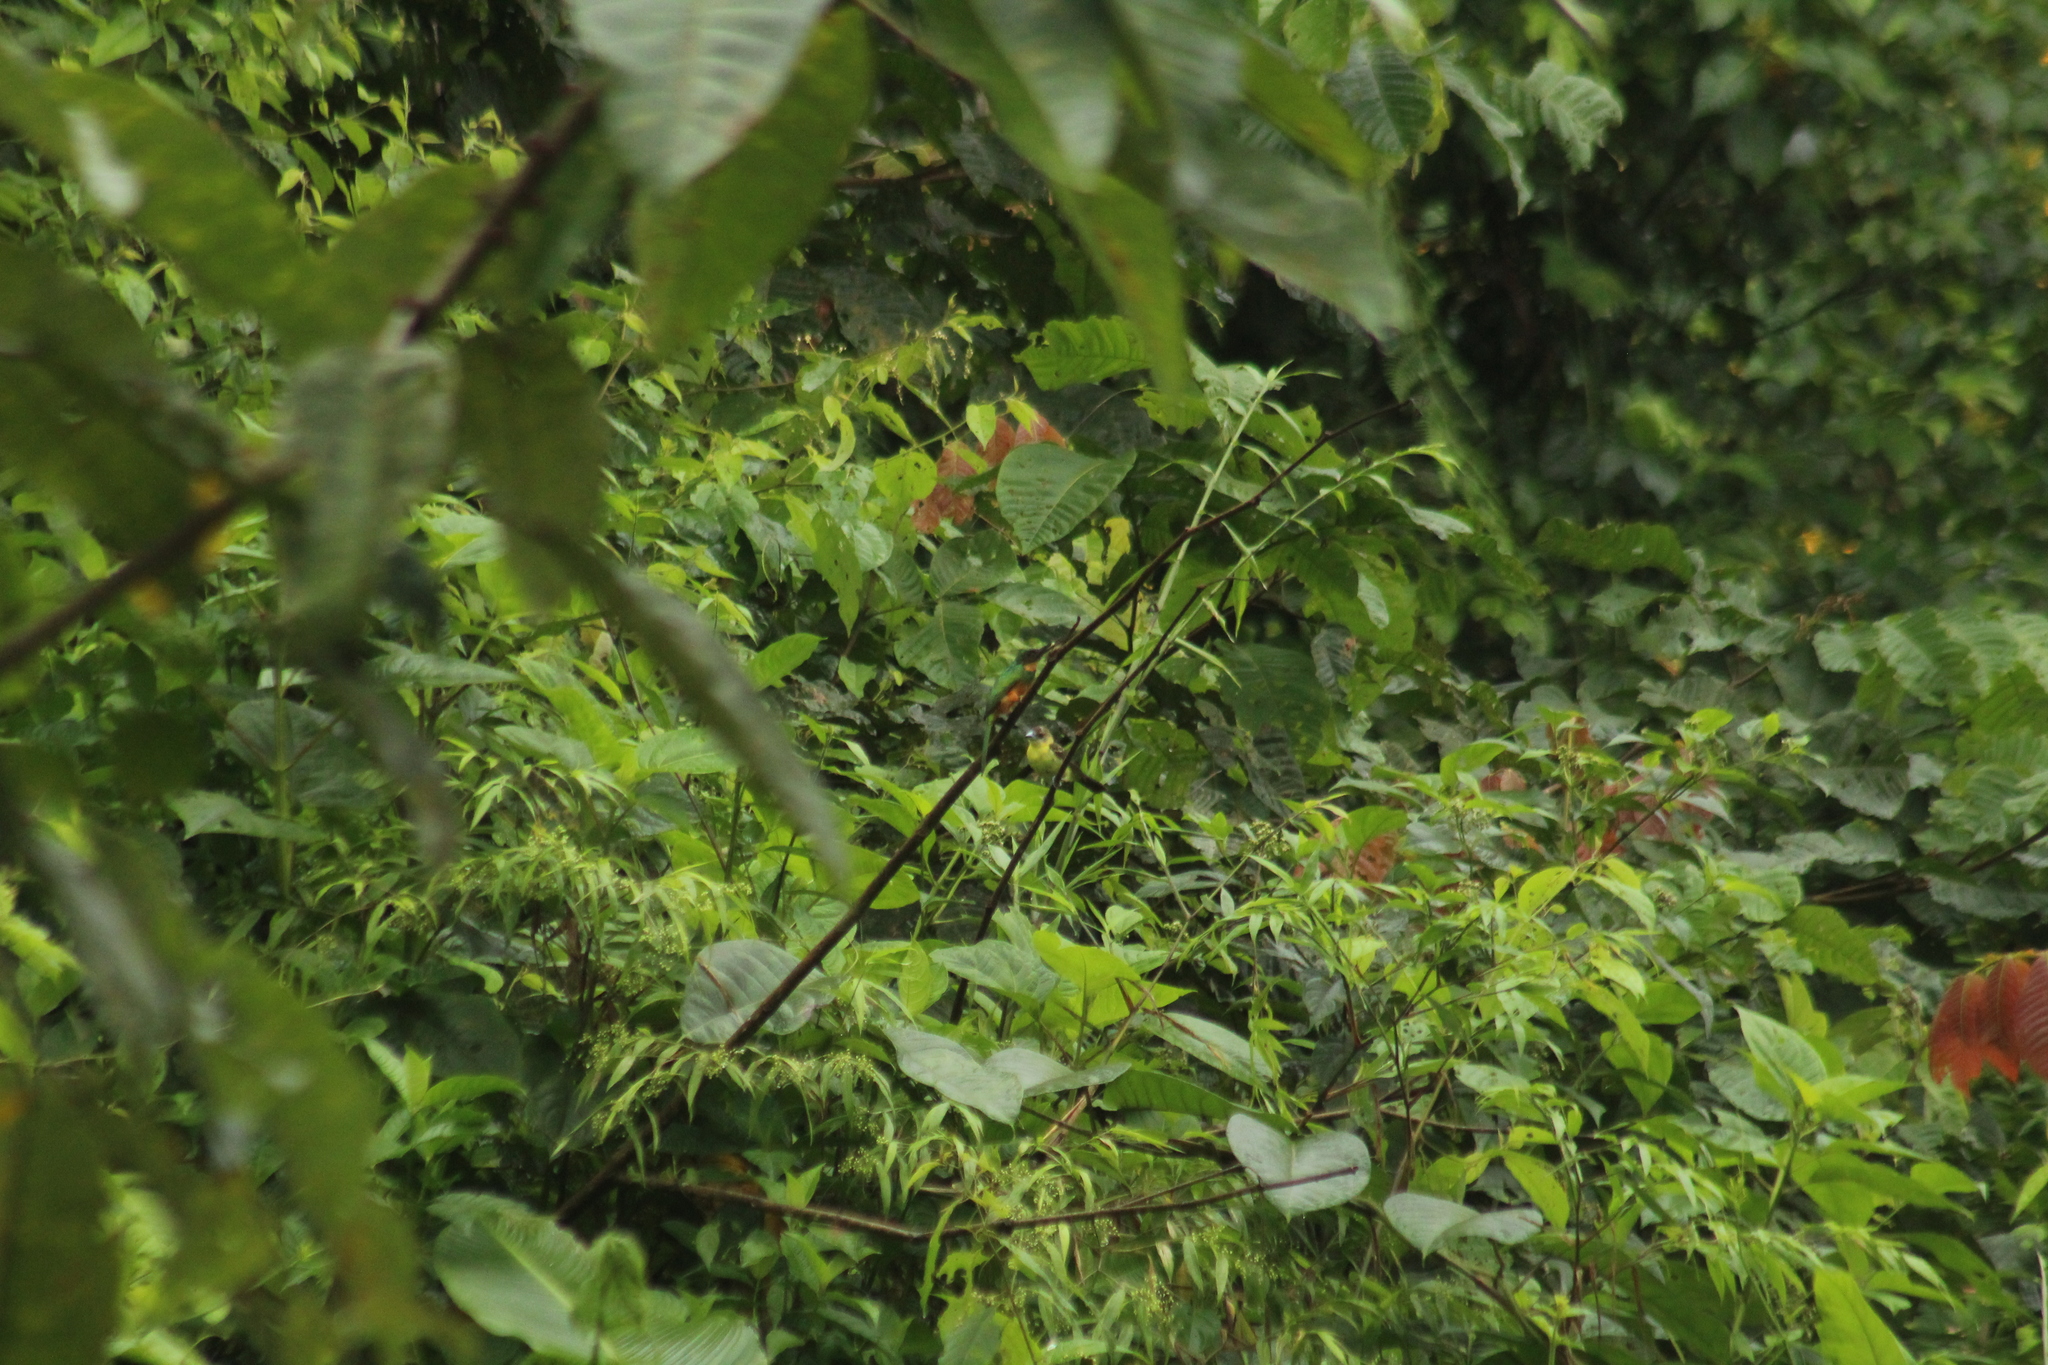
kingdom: Animalia
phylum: Chordata
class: Aves
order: Passeriformes
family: Thraupidae
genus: Ramphocelus
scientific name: Ramphocelus icteronotus
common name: Lemon-rumped tanager
